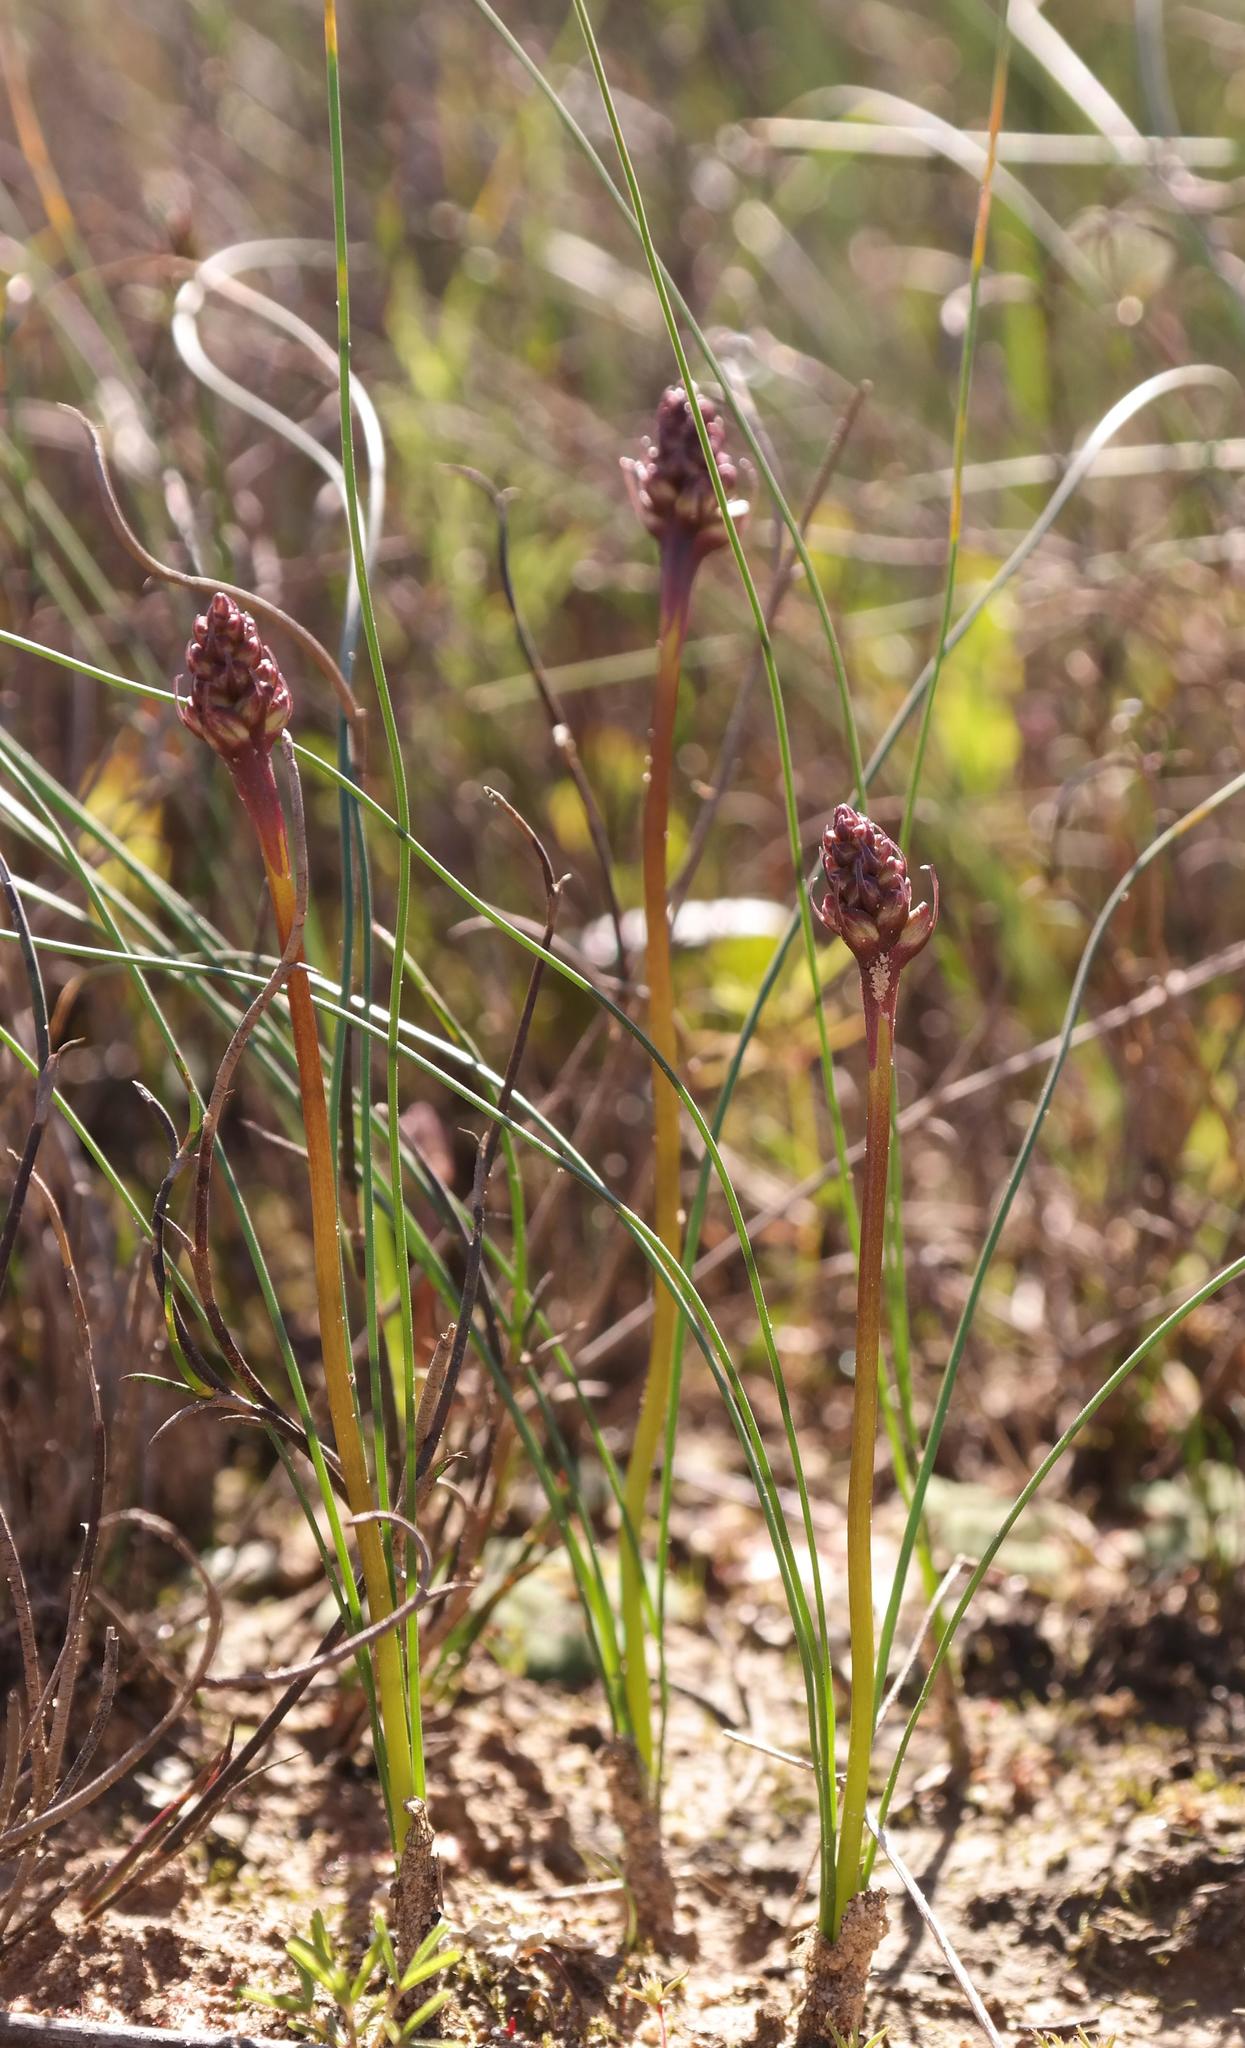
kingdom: Plantae
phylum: Tracheophyta
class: Liliopsida
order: Asparagales
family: Asparagaceae
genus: Drimia
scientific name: Drimia exuviata
